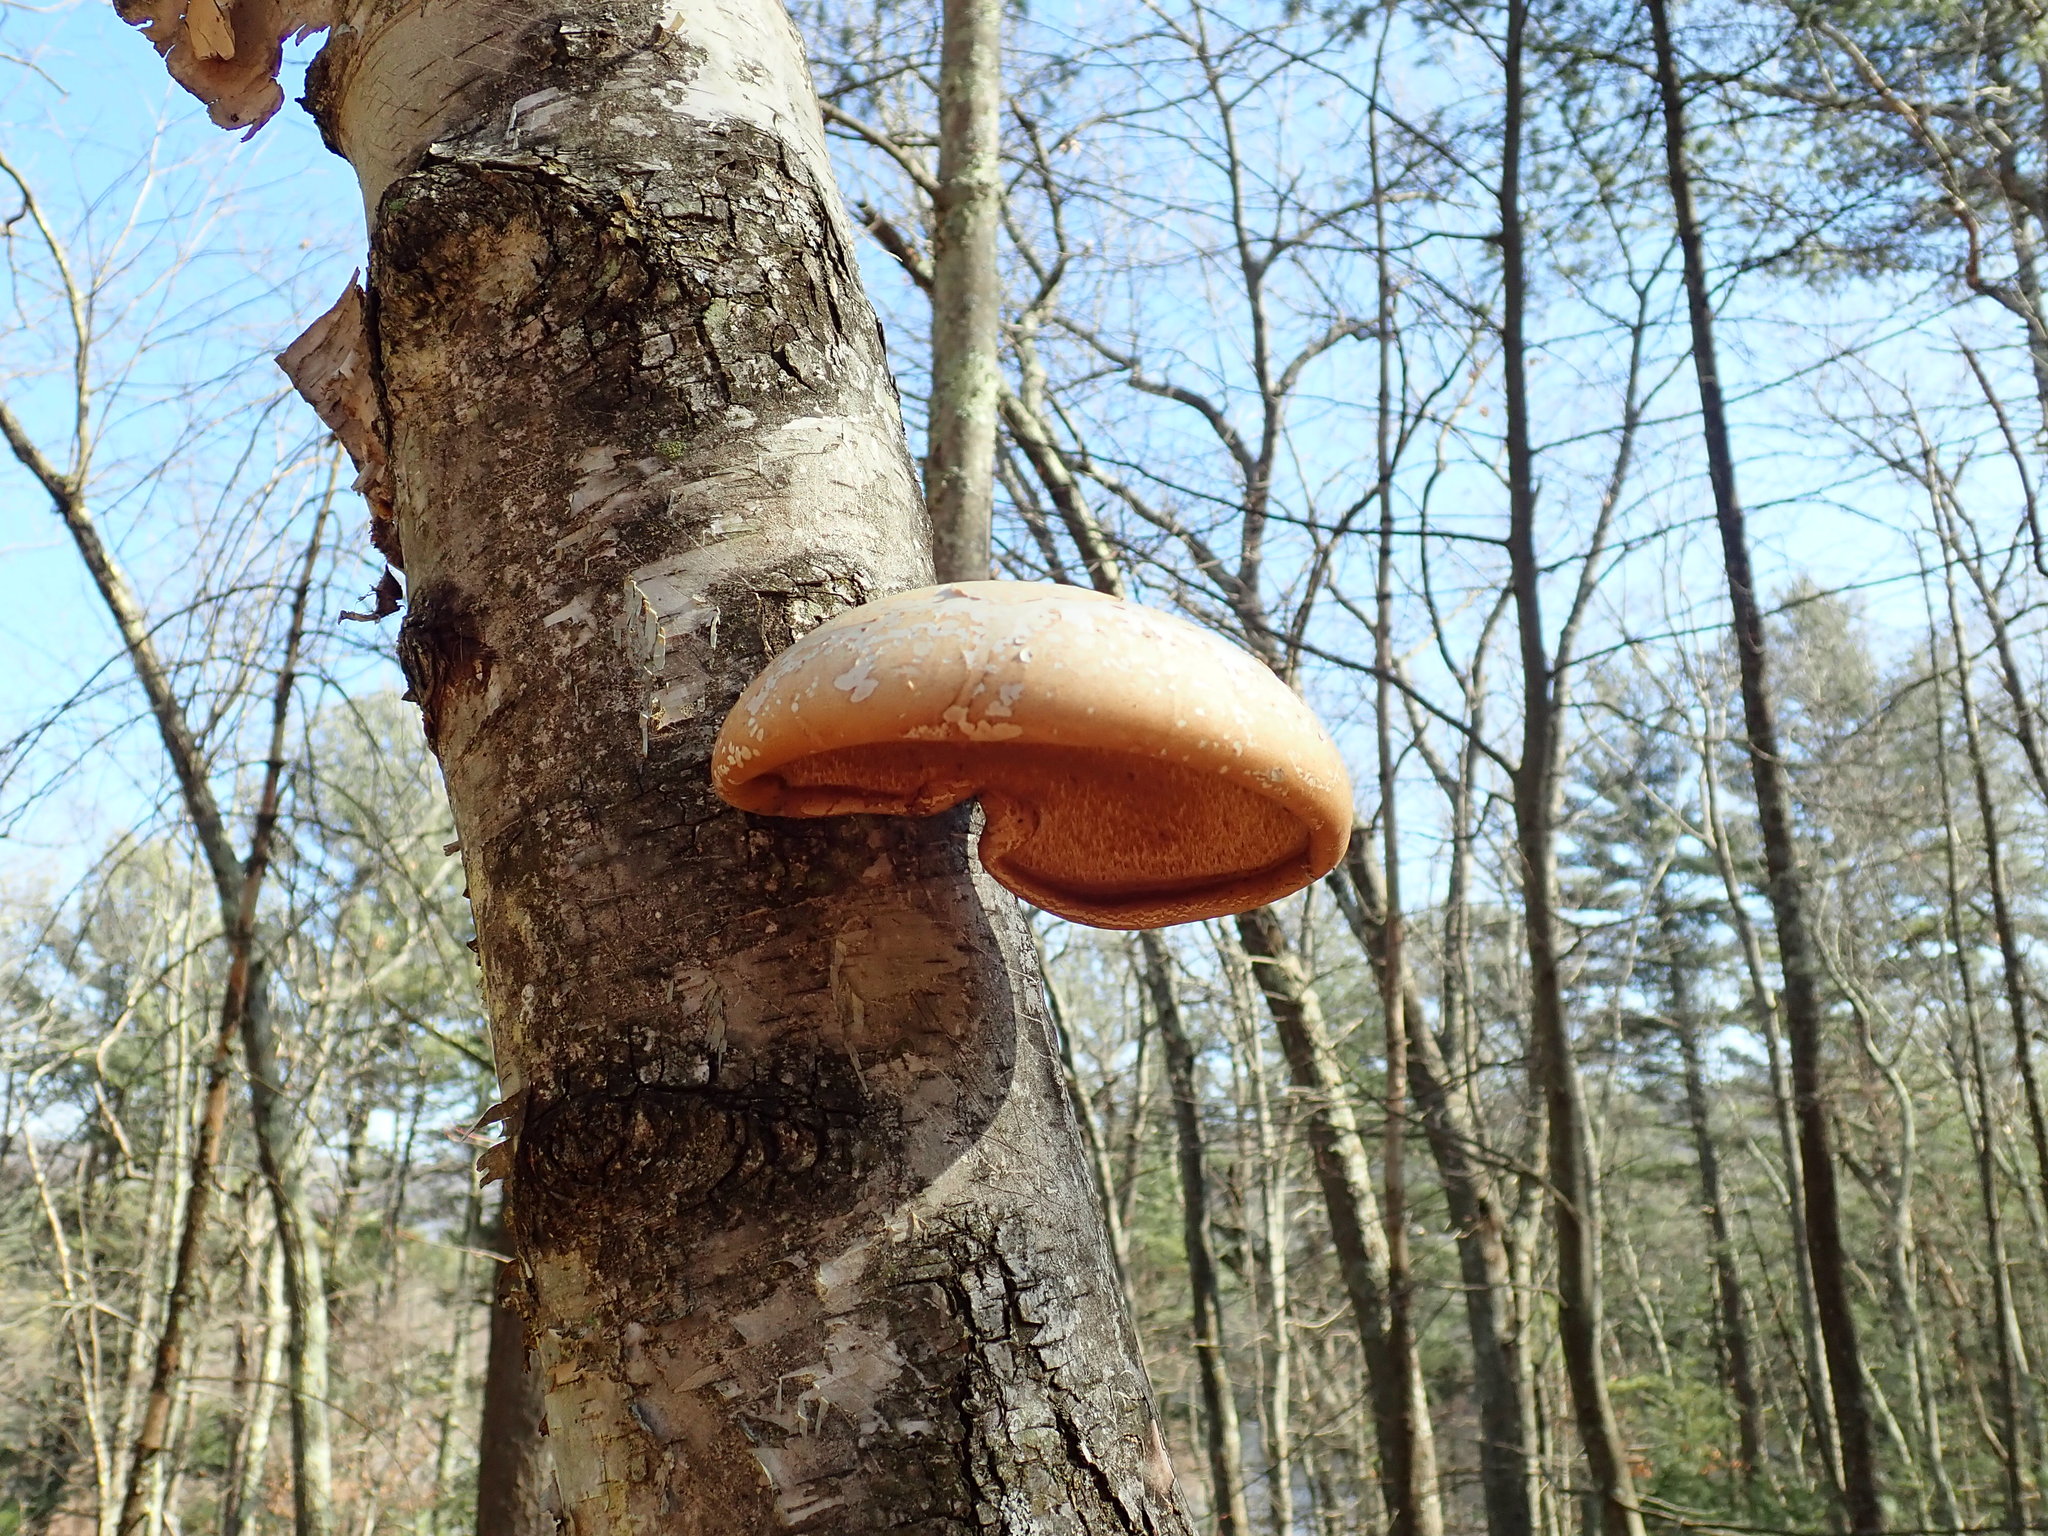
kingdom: Fungi
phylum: Basidiomycota
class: Agaricomycetes
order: Polyporales
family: Fomitopsidaceae
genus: Fomitopsis
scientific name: Fomitopsis betulina
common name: Birch polypore
